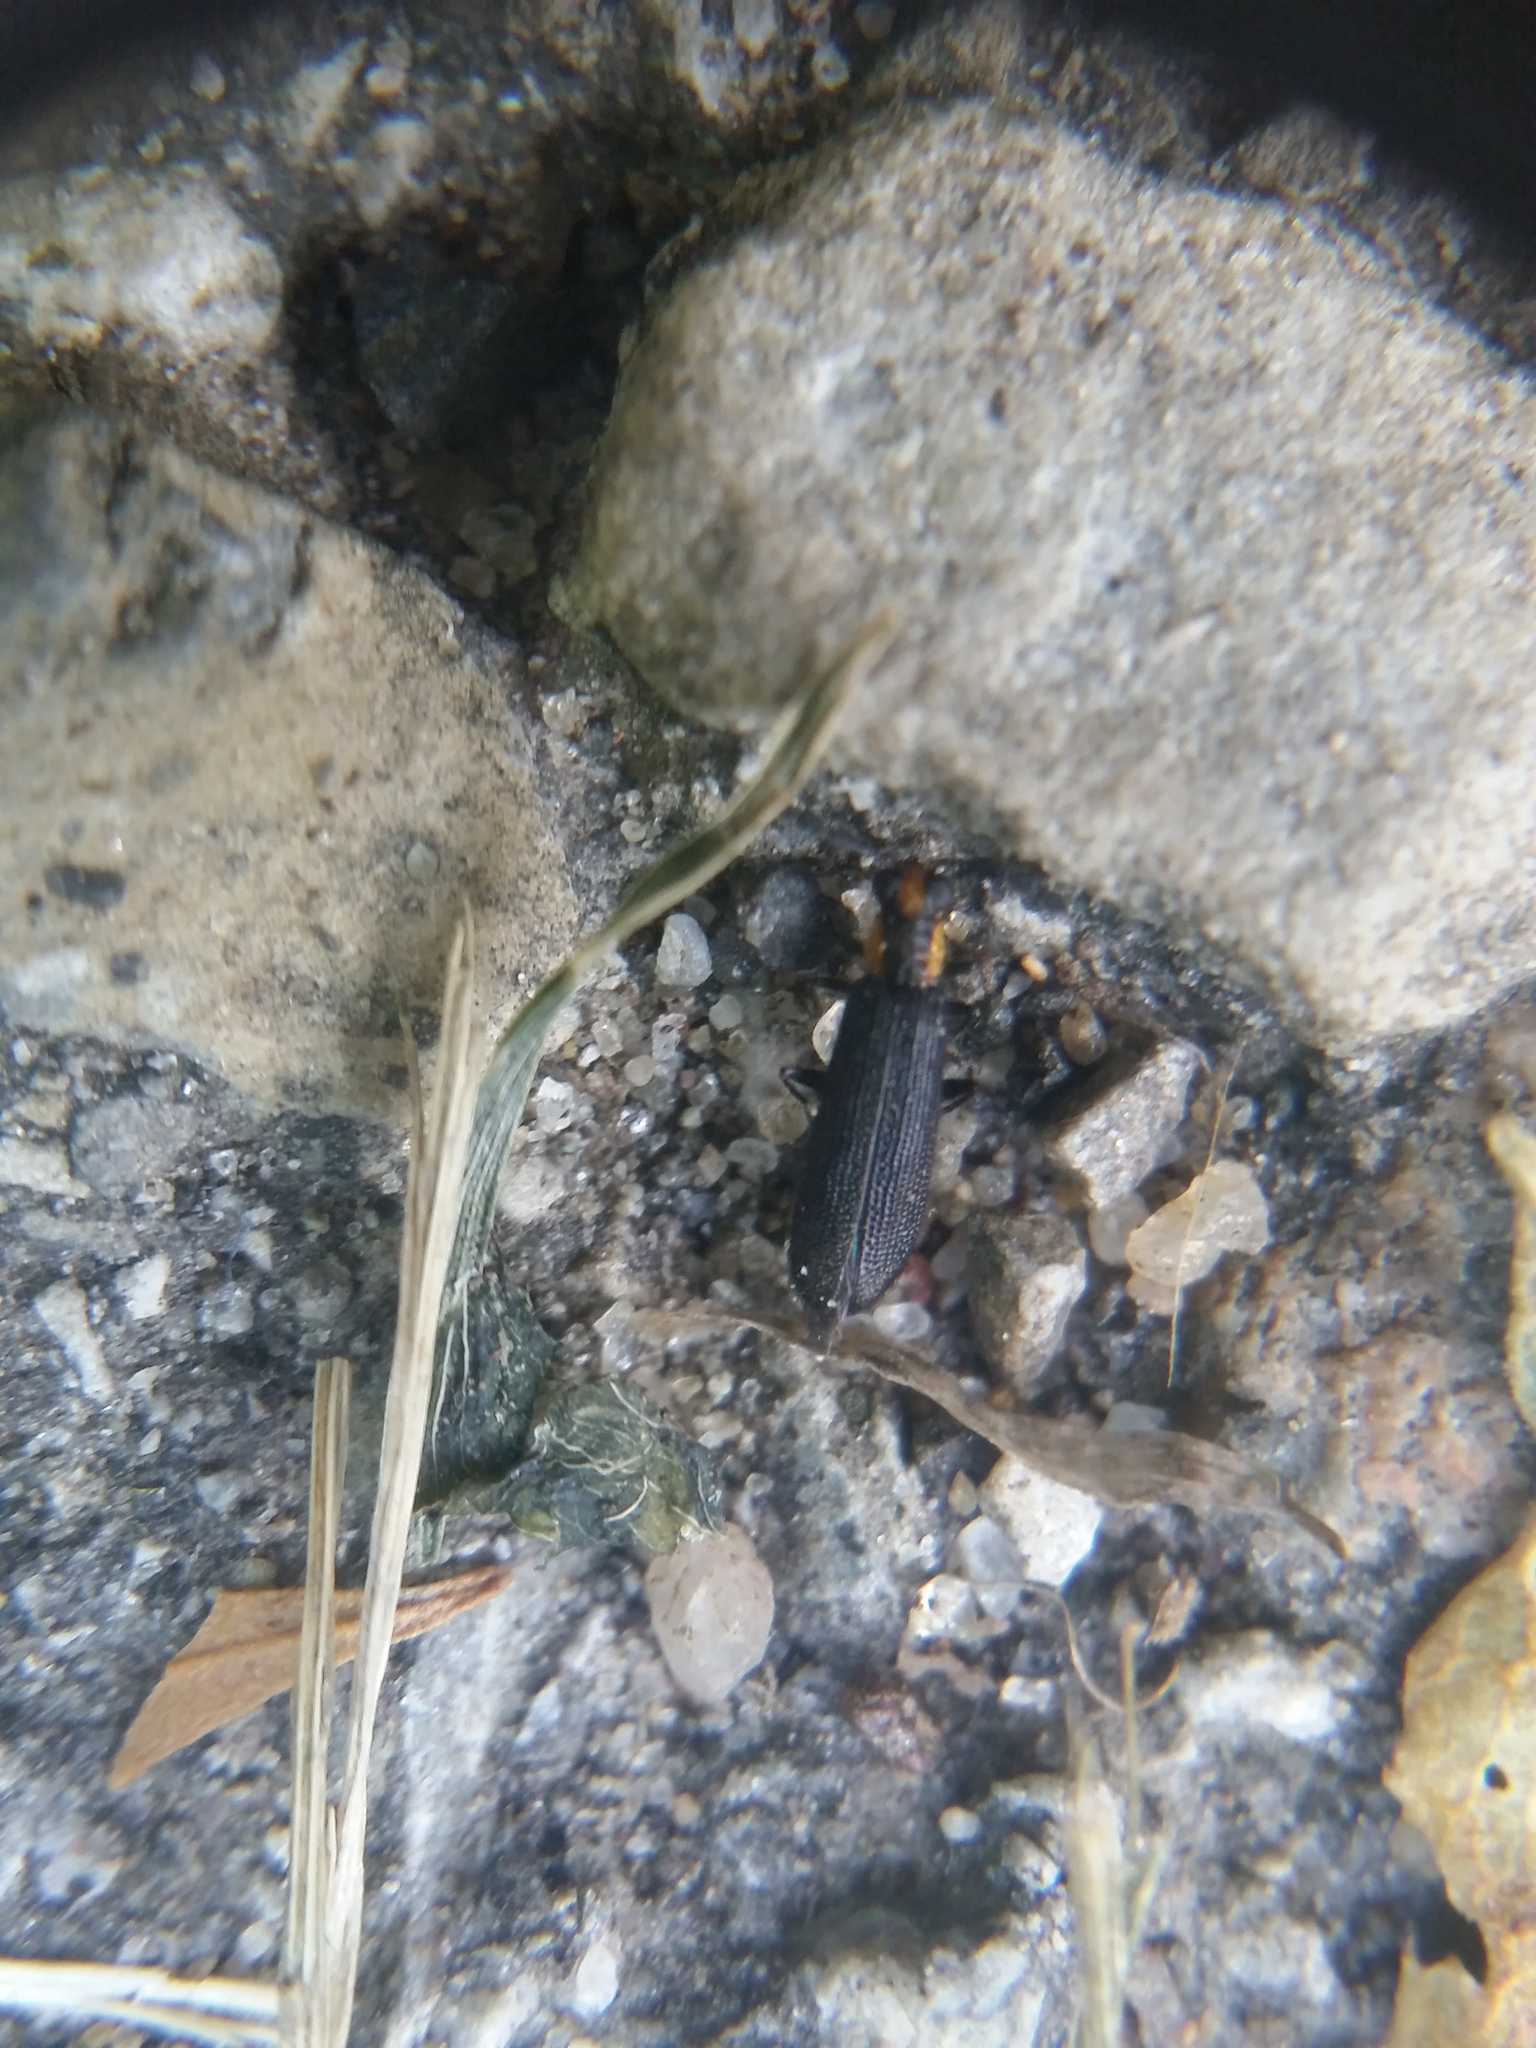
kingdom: Animalia
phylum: Arthropoda
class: Insecta
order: Coleoptera
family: Cleridae
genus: Pyticeroides
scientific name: Pyticeroides laticornis
